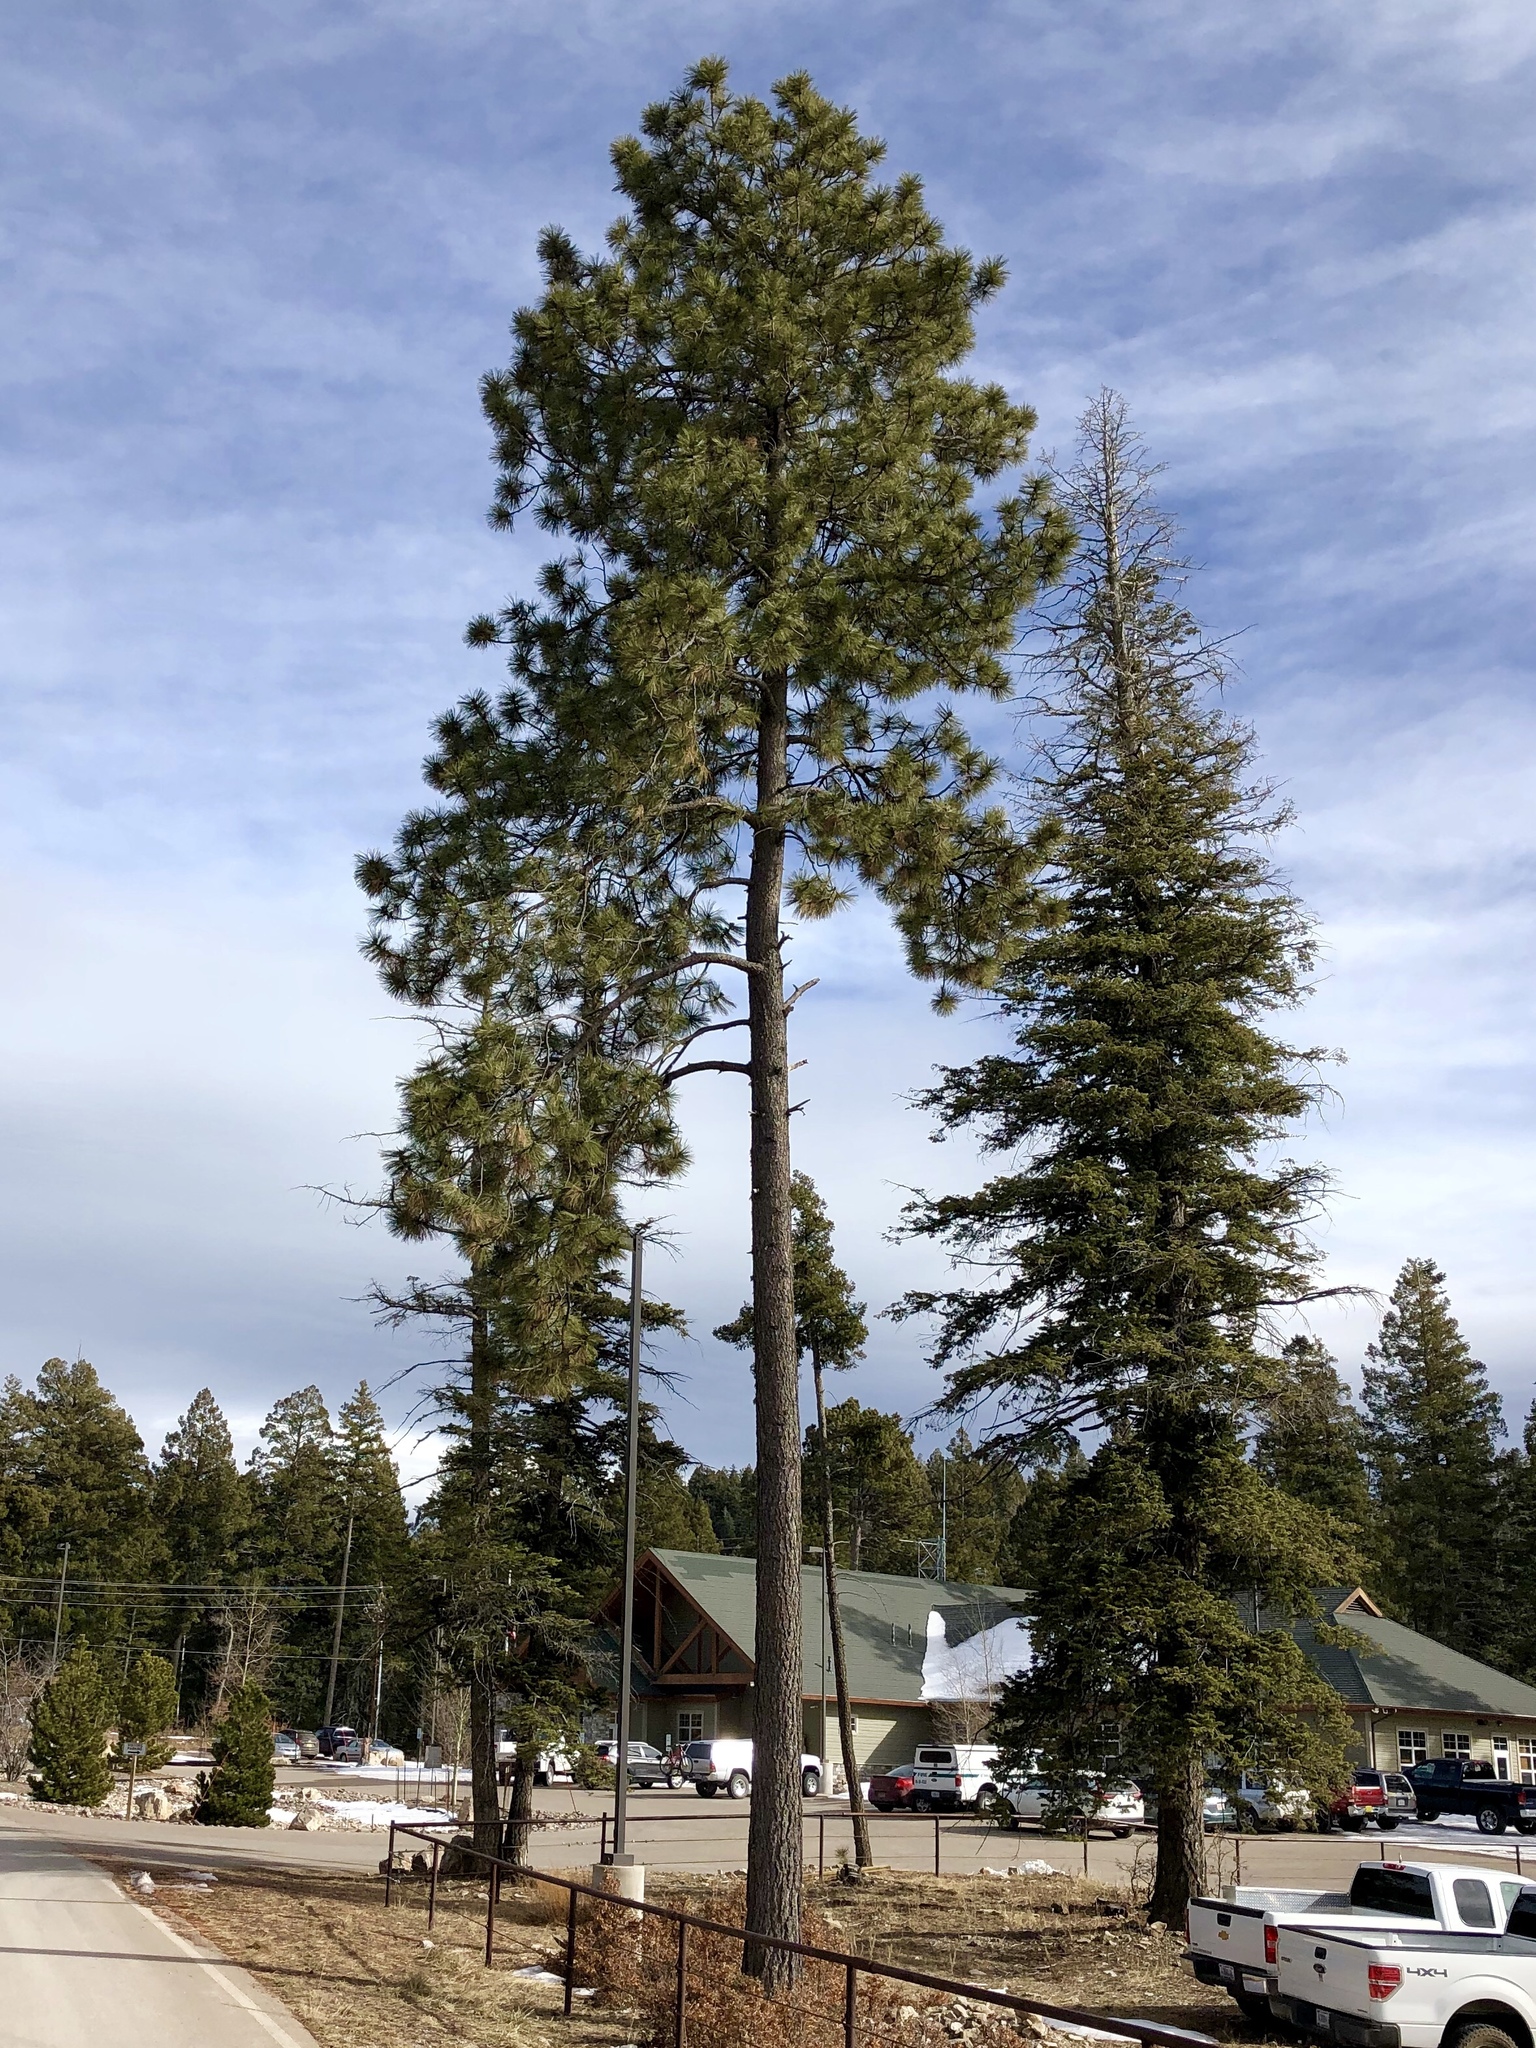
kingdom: Plantae
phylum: Tracheophyta
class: Pinopsida
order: Pinales
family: Pinaceae
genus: Pinus
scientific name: Pinus ponderosa
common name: Western yellow-pine
